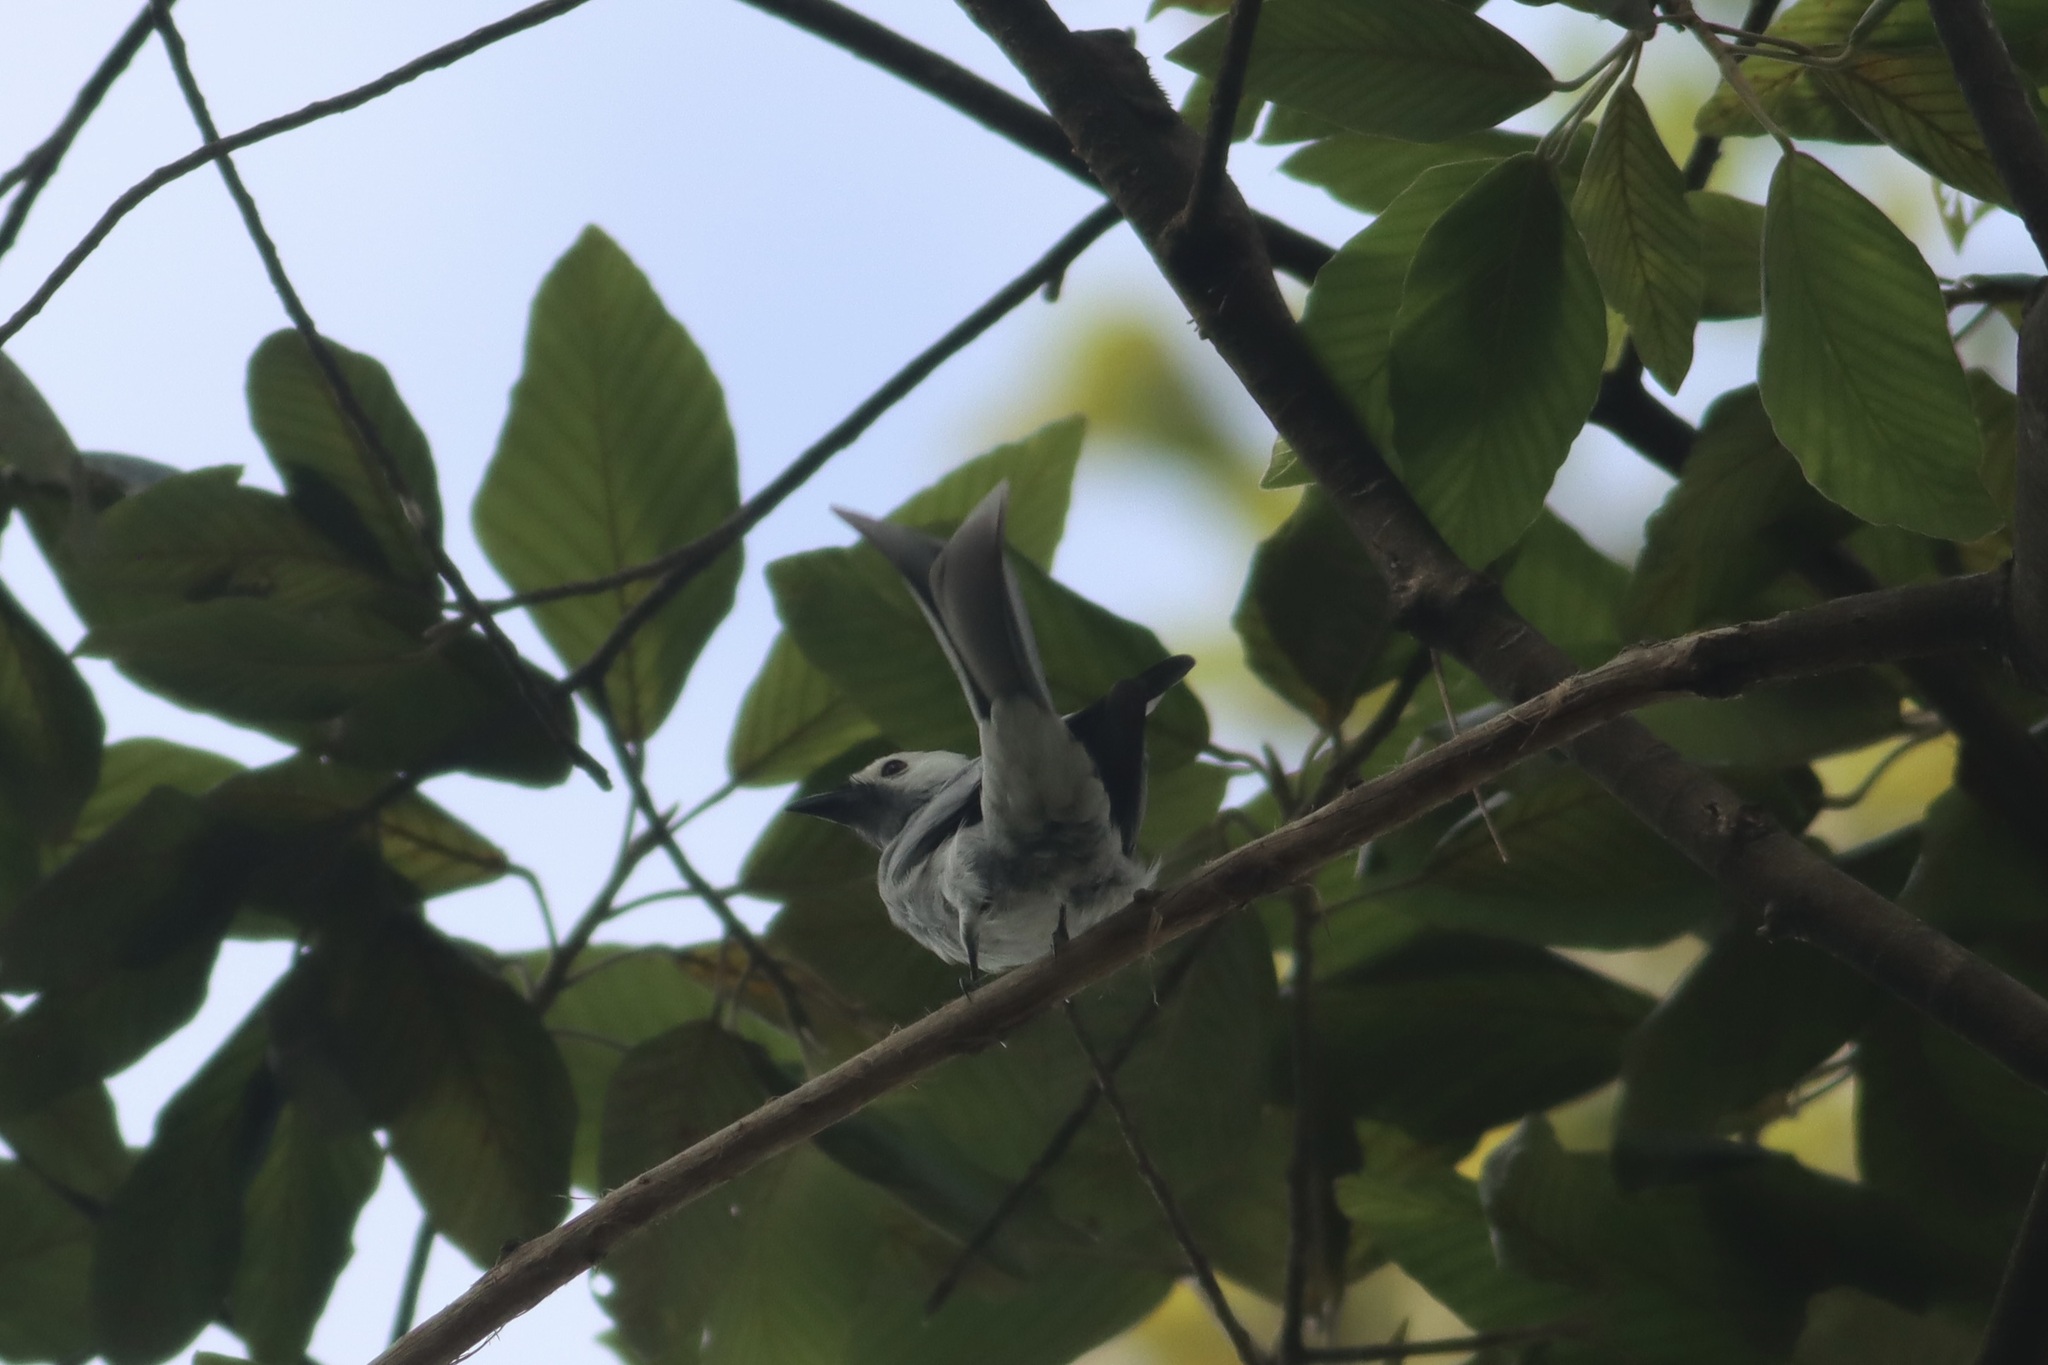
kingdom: Animalia
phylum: Chordata
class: Aves
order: Passeriformes
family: Dicruridae
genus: Dicrurus
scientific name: Dicrurus leucophaeus
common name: Ashy drongo
